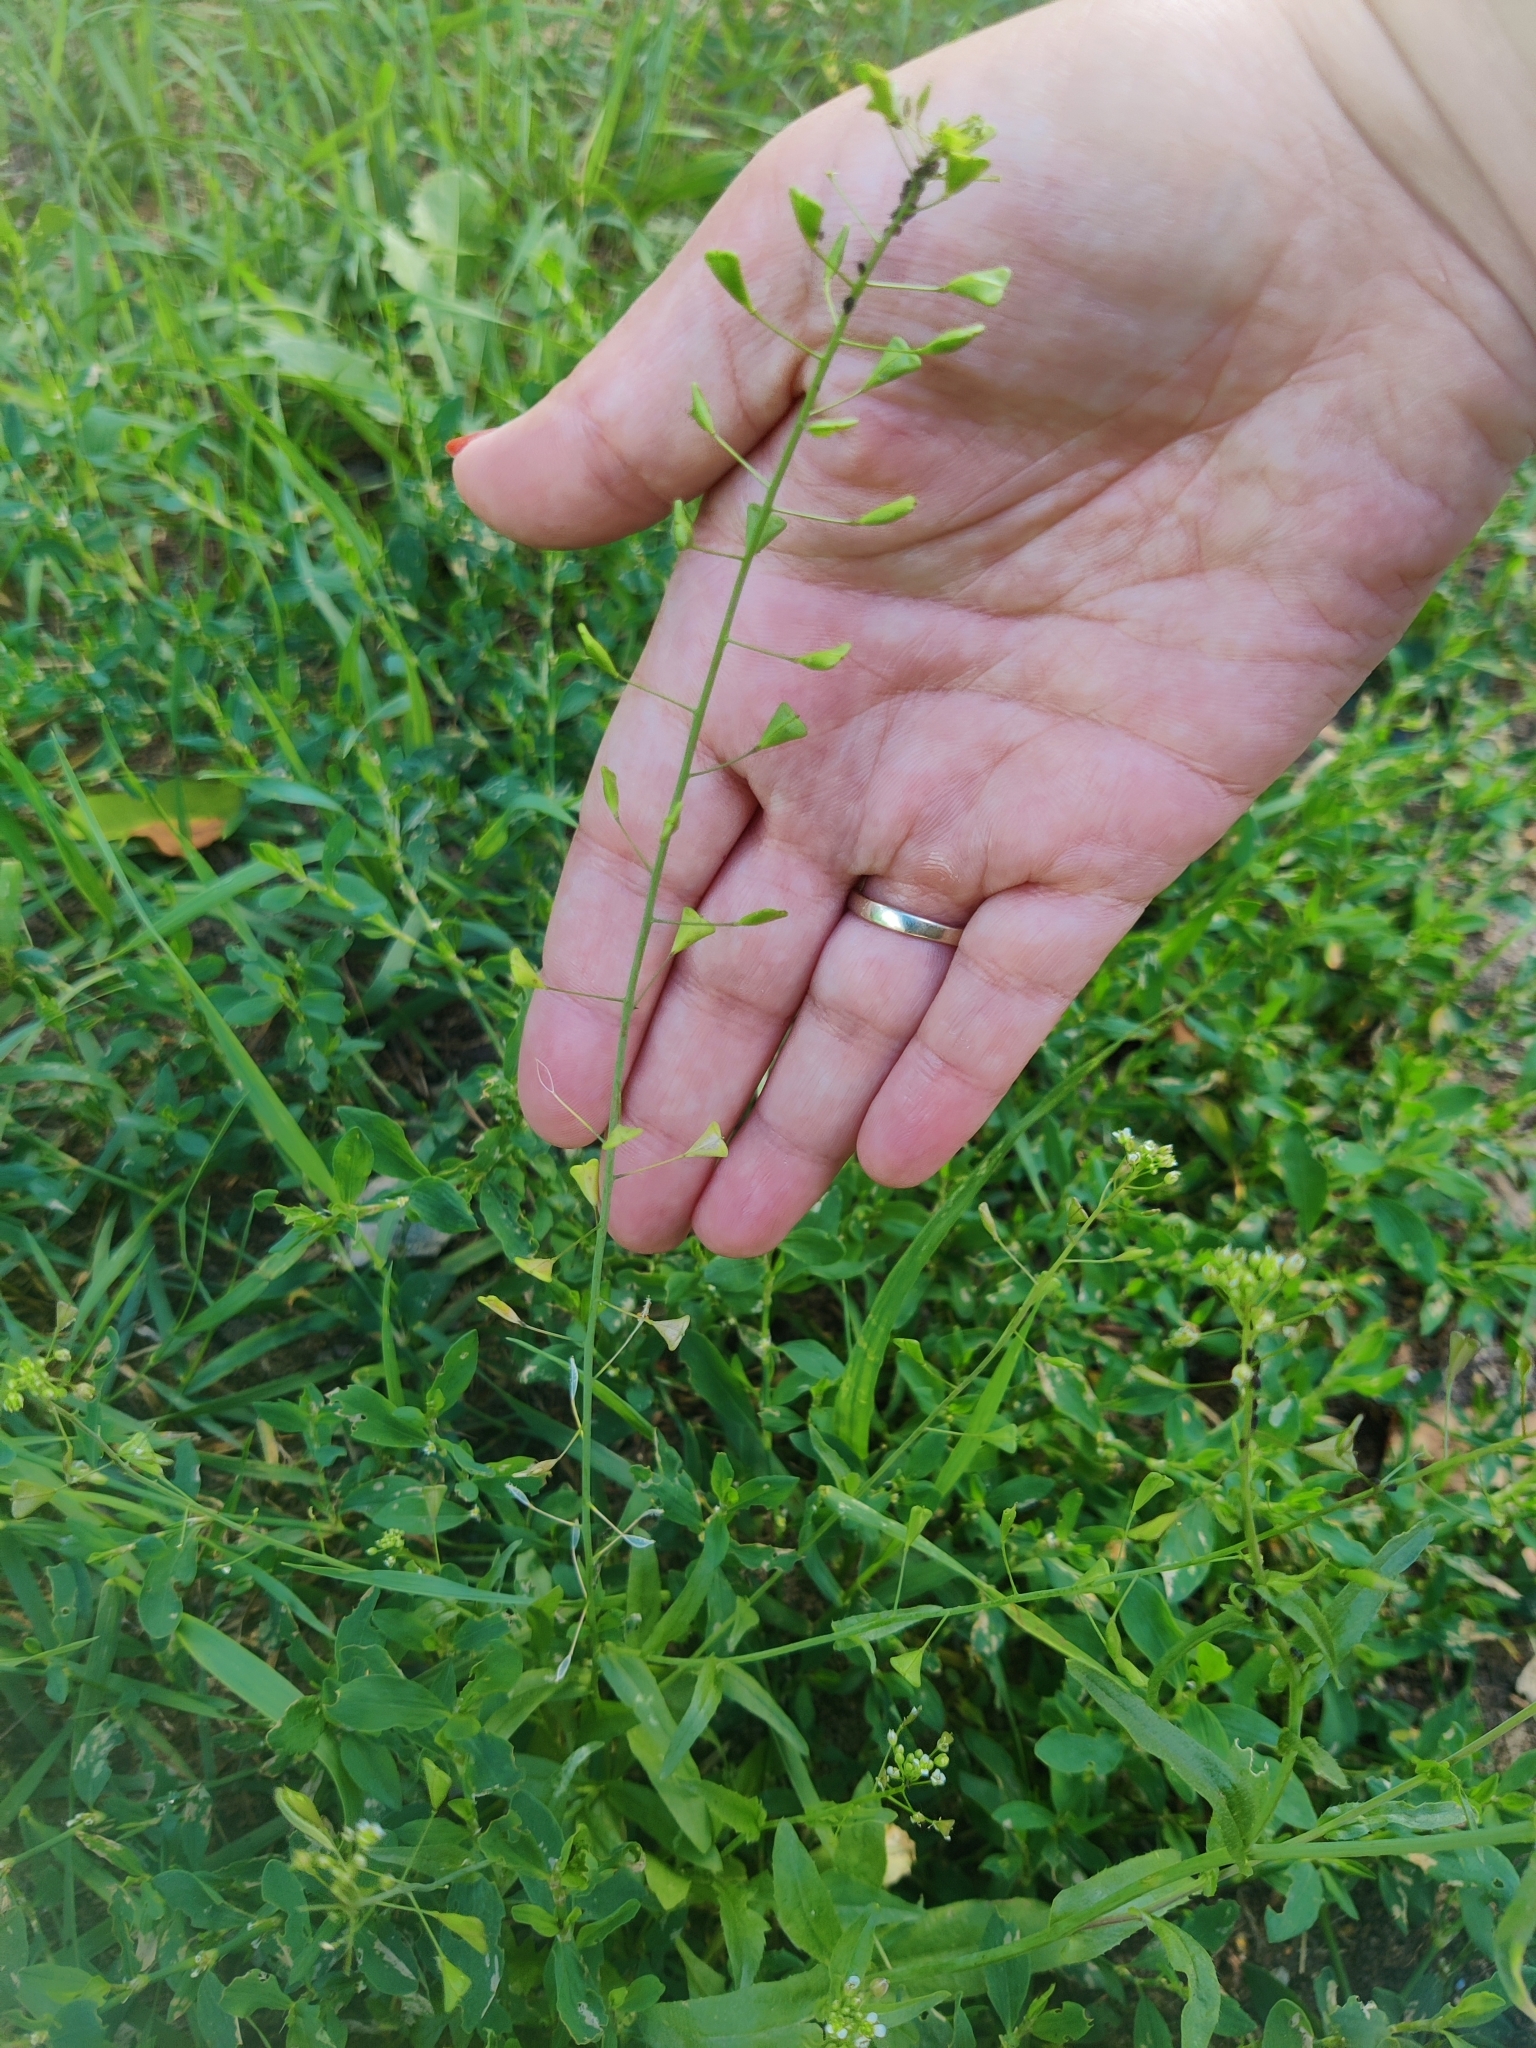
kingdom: Plantae
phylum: Tracheophyta
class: Magnoliopsida
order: Brassicales
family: Brassicaceae
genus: Capsella
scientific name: Capsella bursa-pastoris
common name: Shepherd's purse
